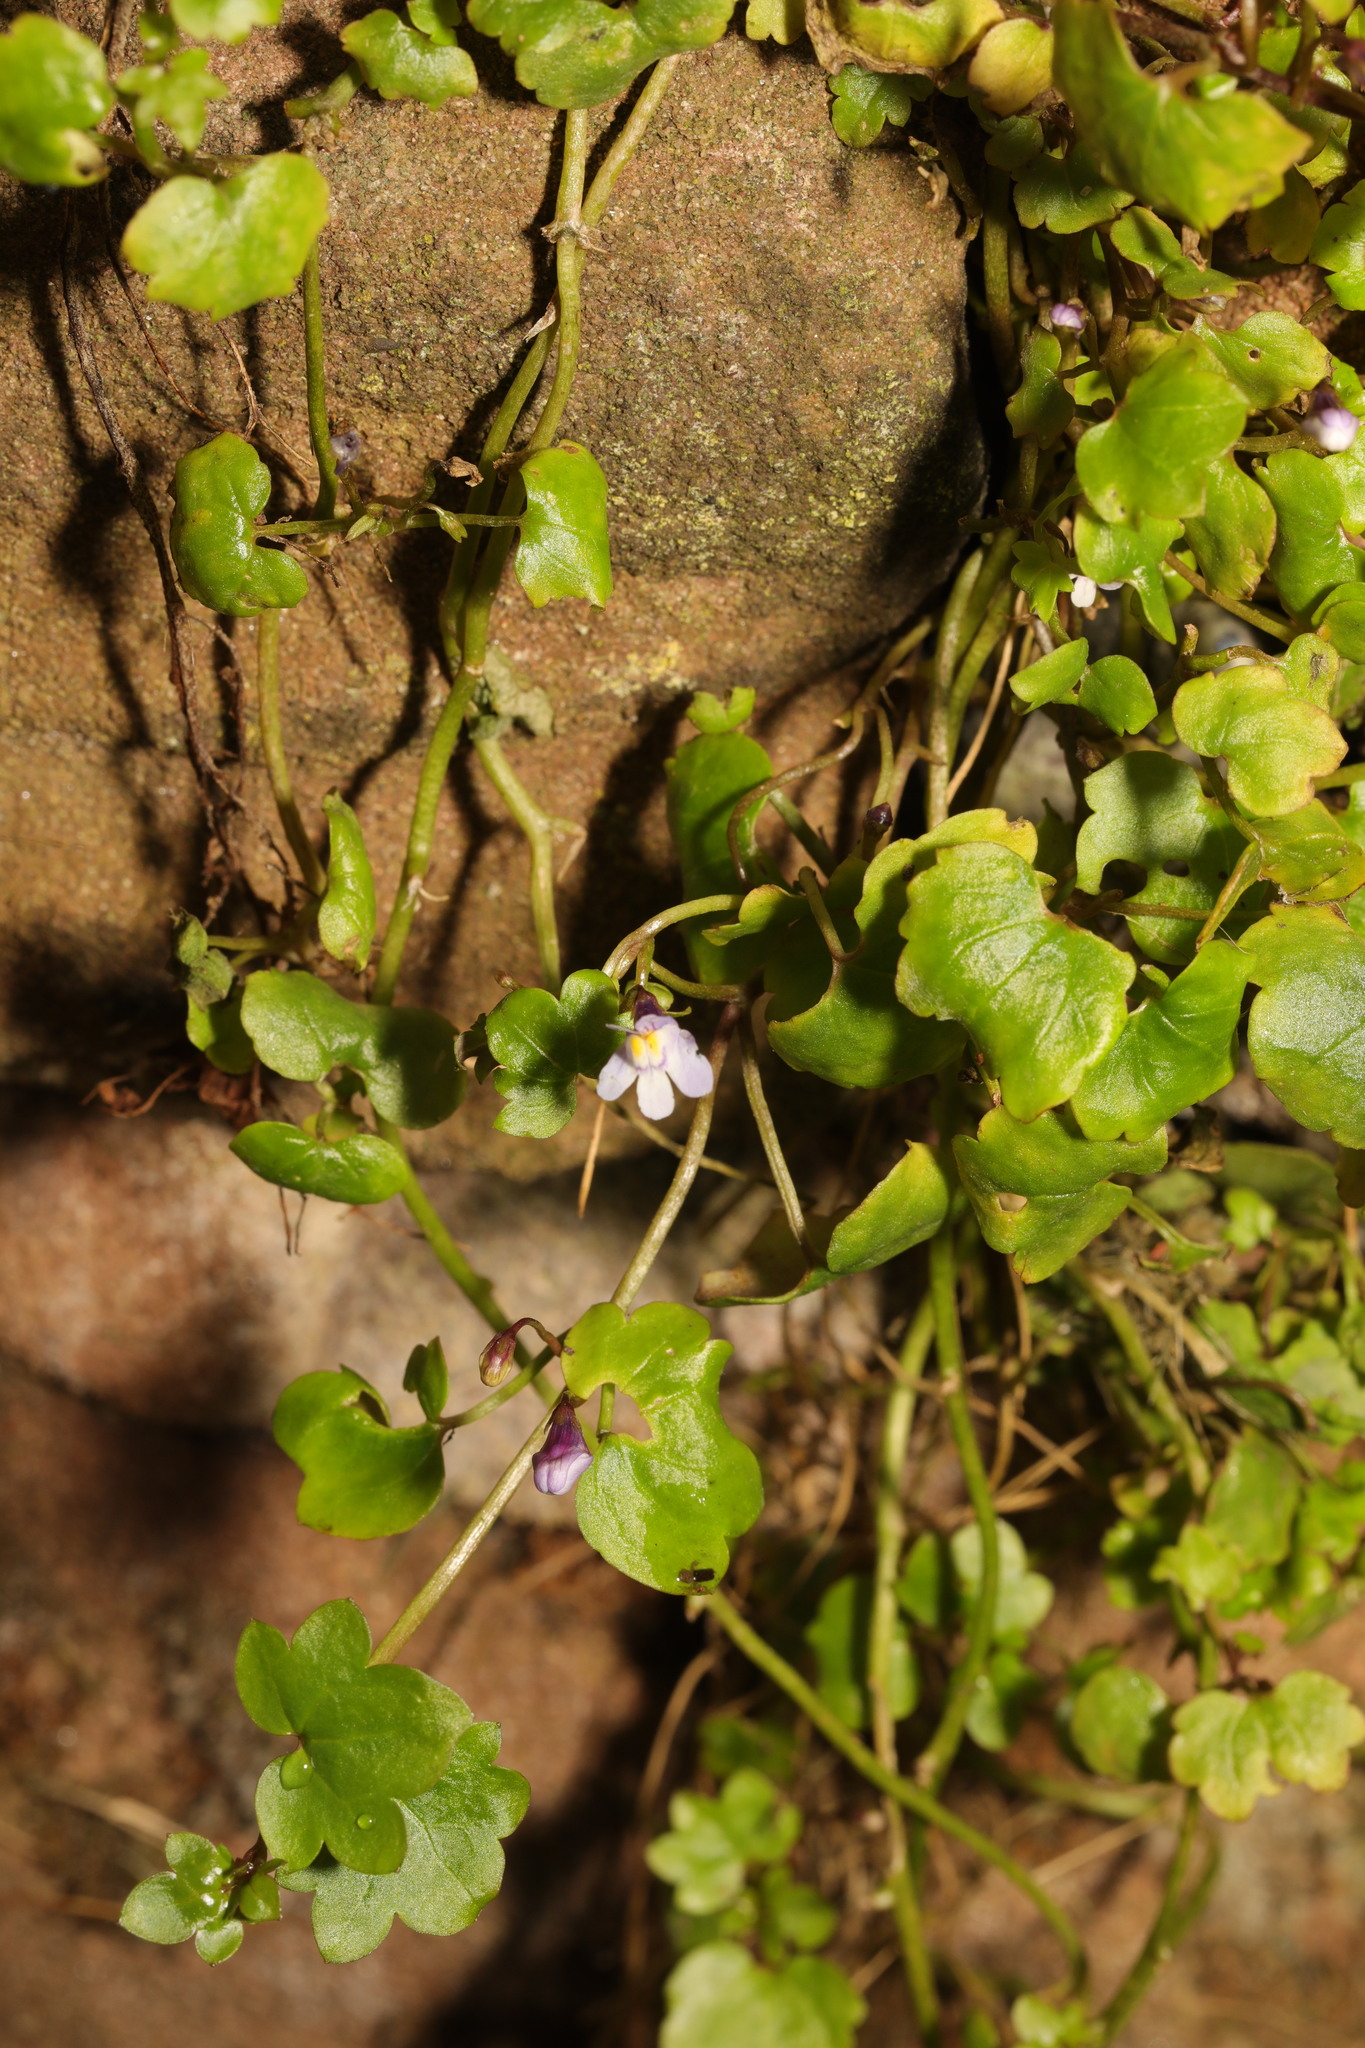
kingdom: Plantae
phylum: Tracheophyta
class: Magnoliopsida
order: Lamiales
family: Plantaginaceae
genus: Cymbalaria
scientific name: Cymbalaria muralis
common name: Ivy-leaved toadflax
